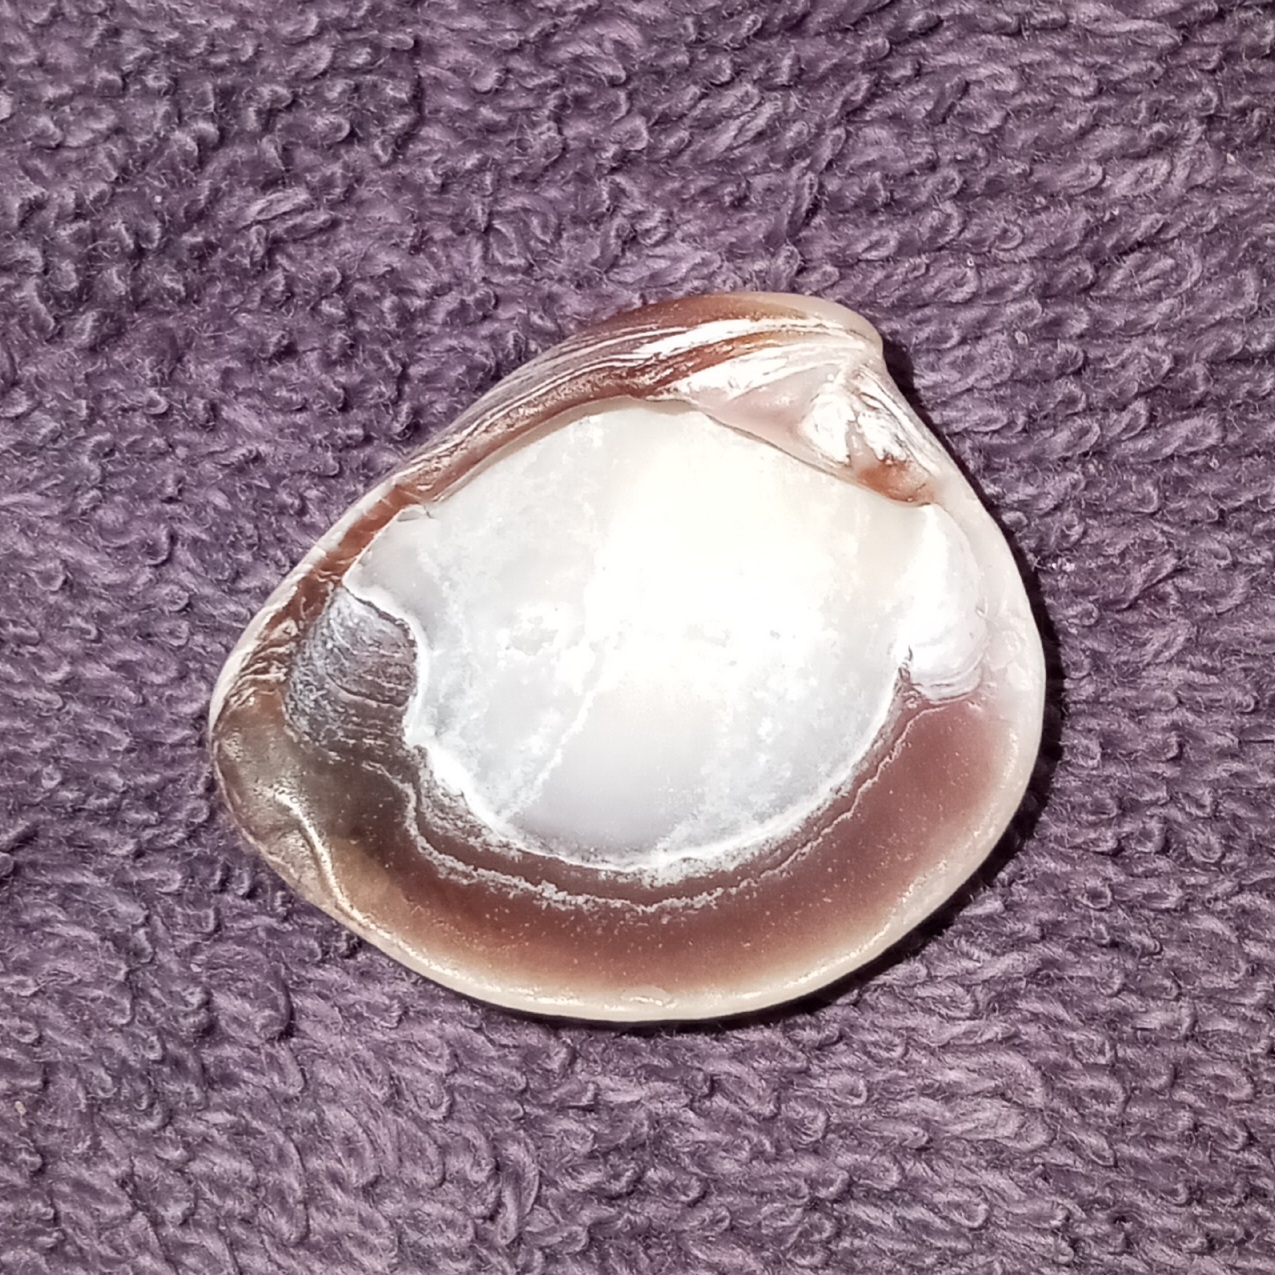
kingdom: Animalia
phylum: Mollusca
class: Bivalvia
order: Venerida
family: Veneridae
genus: Chione
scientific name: Chione elevata
